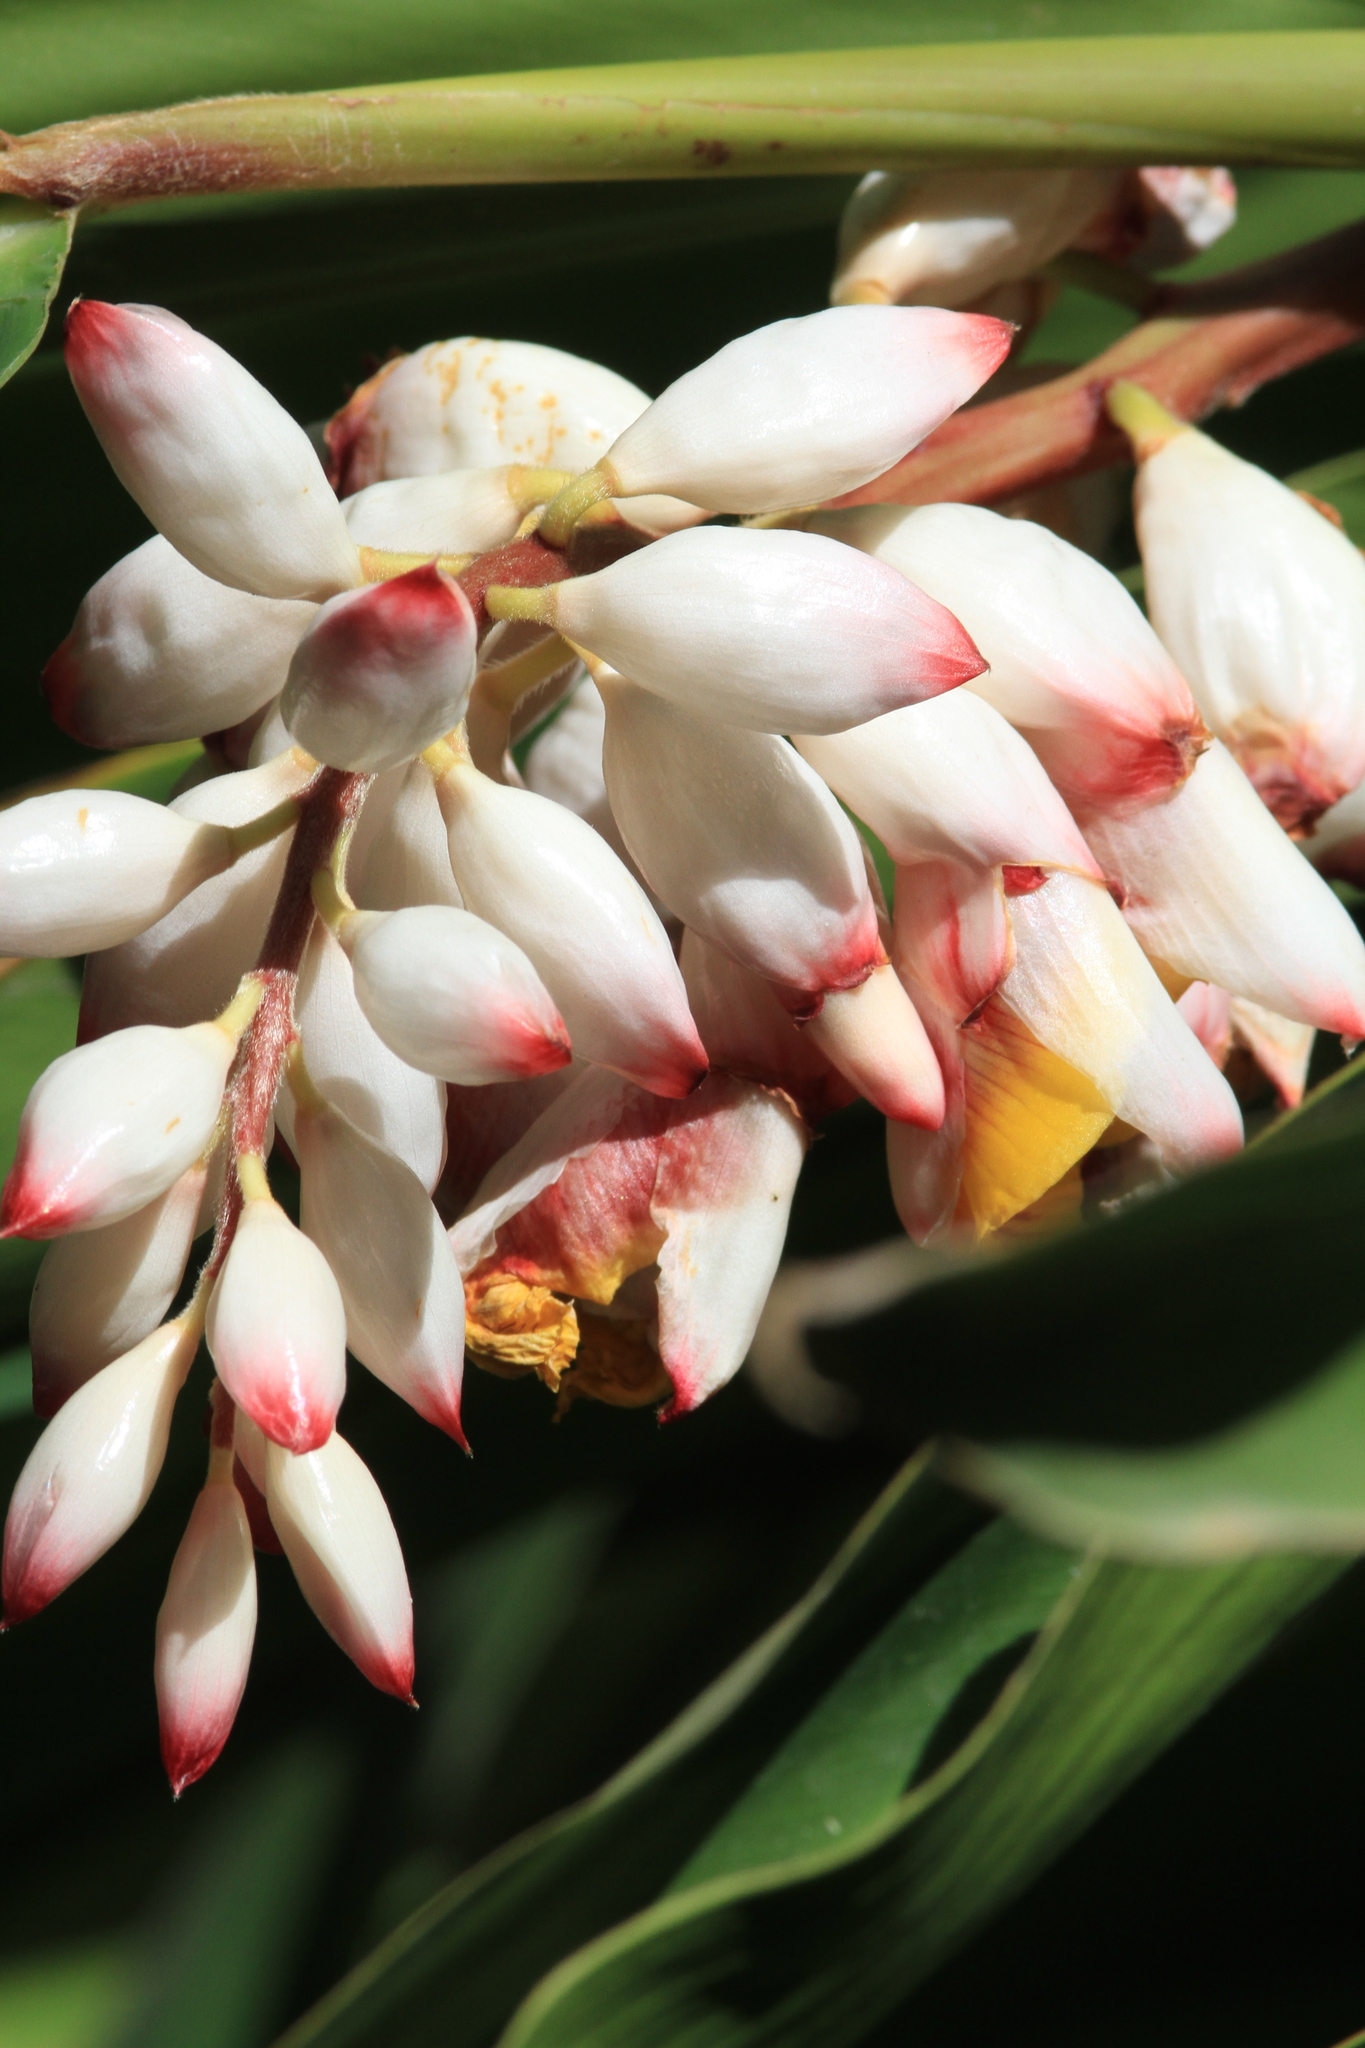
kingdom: Plantae
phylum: Tracheophyta
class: Liliopsida
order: Zingiberales
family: Zingiberaceae
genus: Alpinia
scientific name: Alpinia zerumbet
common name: Shellplant
